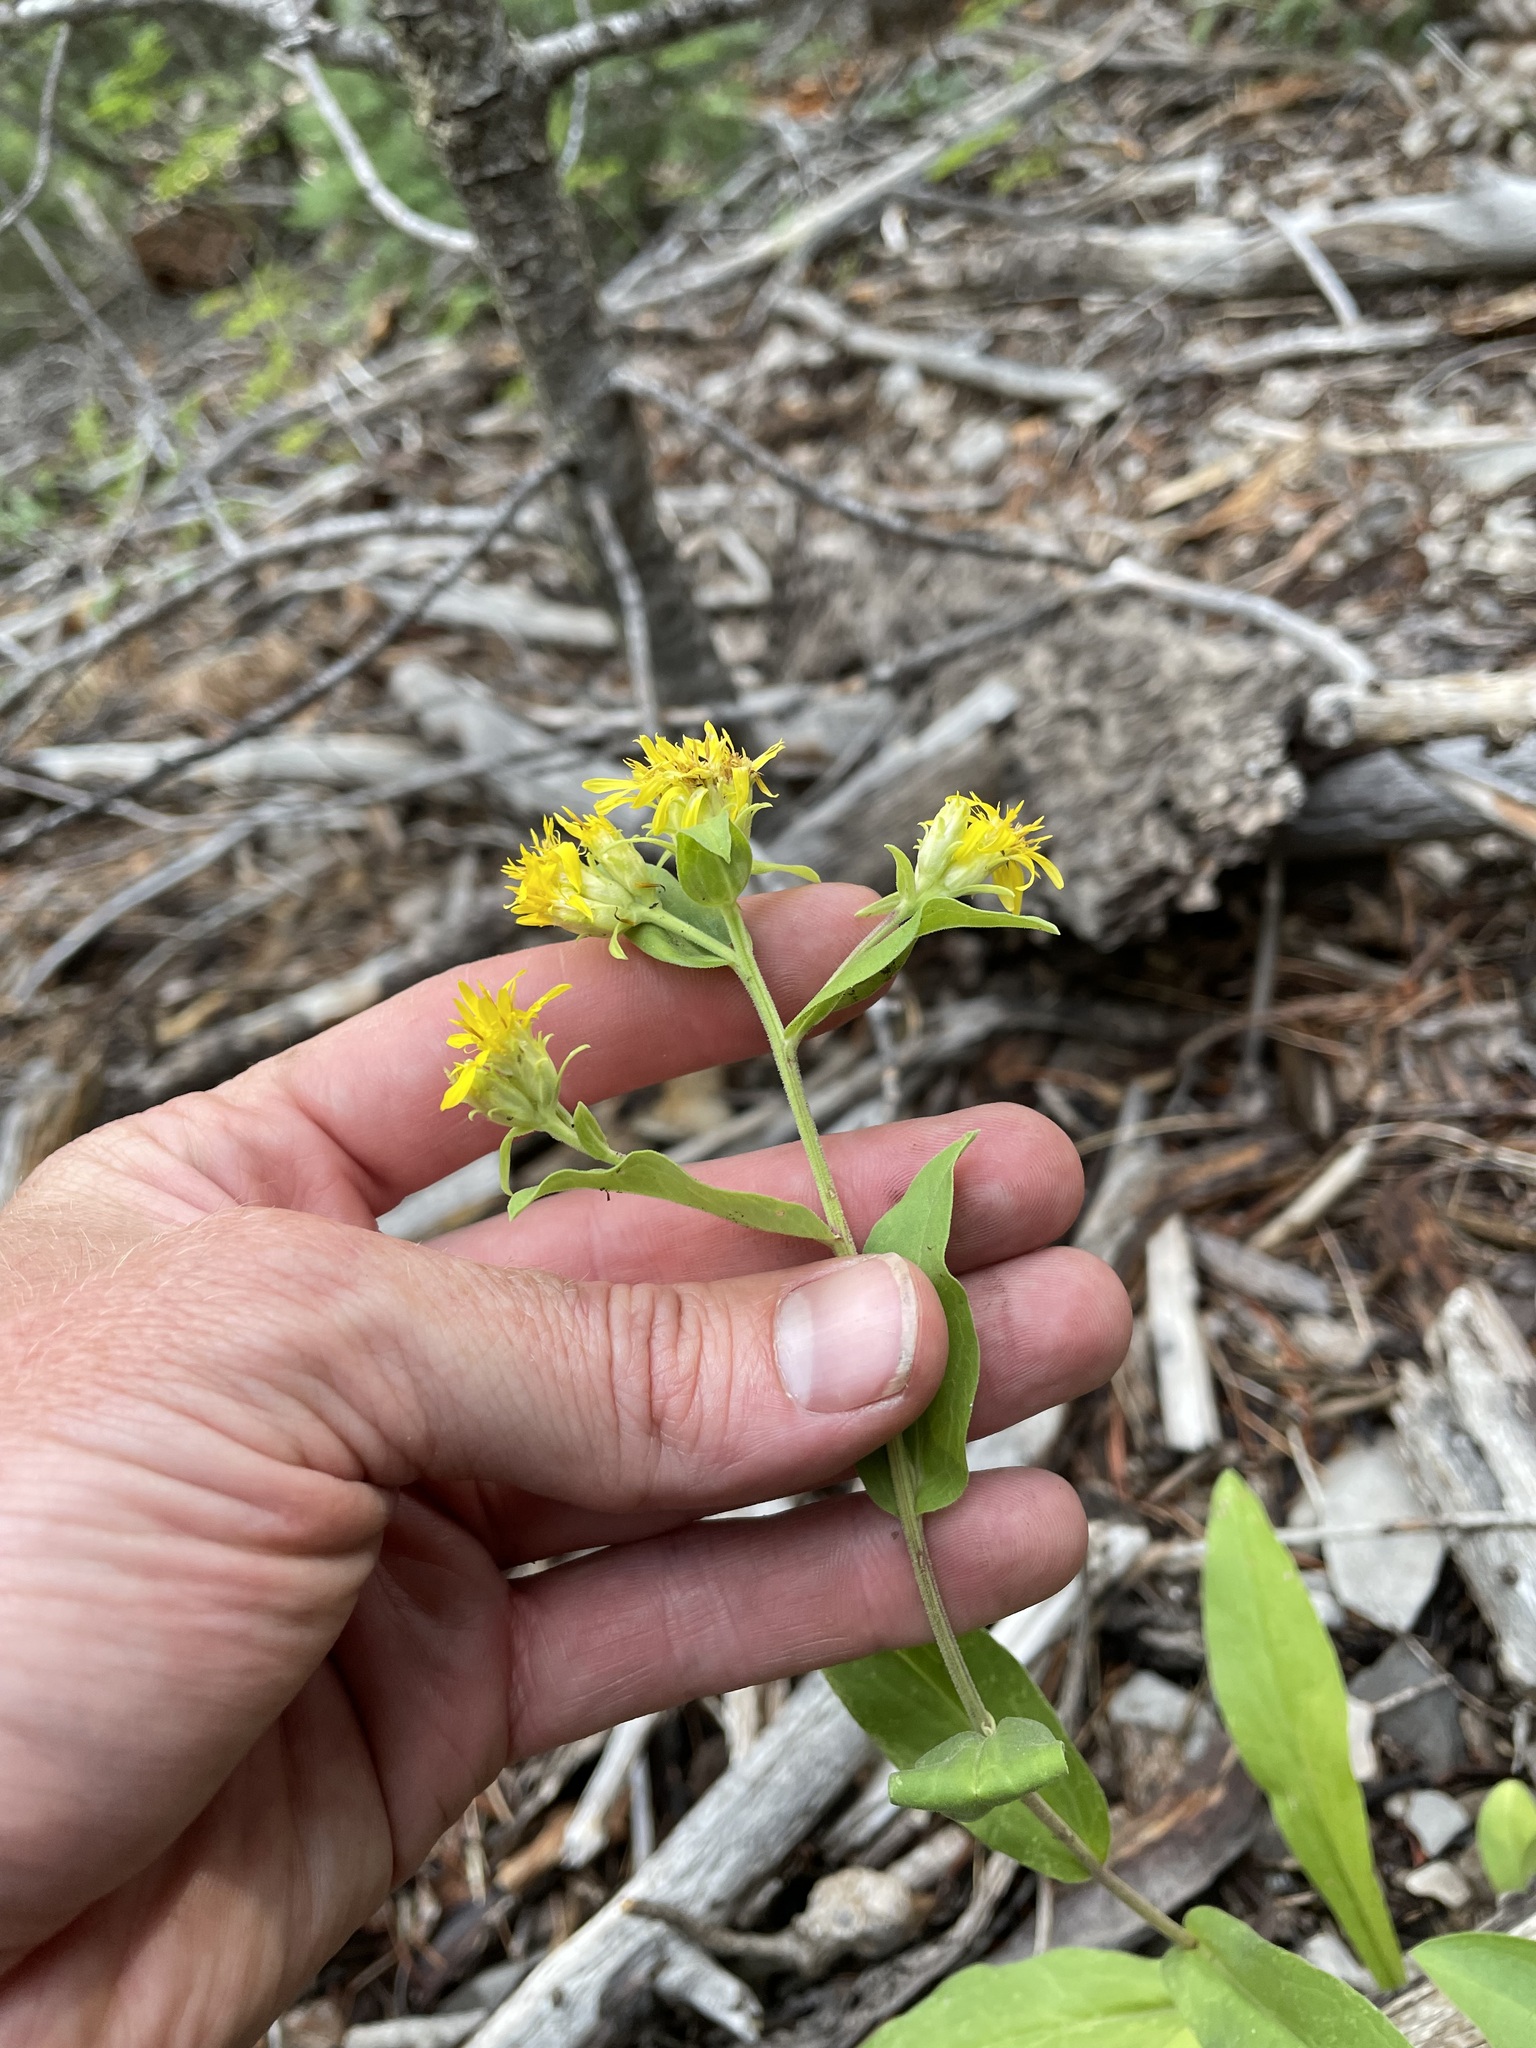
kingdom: Plantae
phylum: Tracheophyta
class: Magnoliopsida
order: Asterales
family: Asteraceae
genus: Oreochrysum
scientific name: Oreochrysum parryi
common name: Parry's goldenweed
